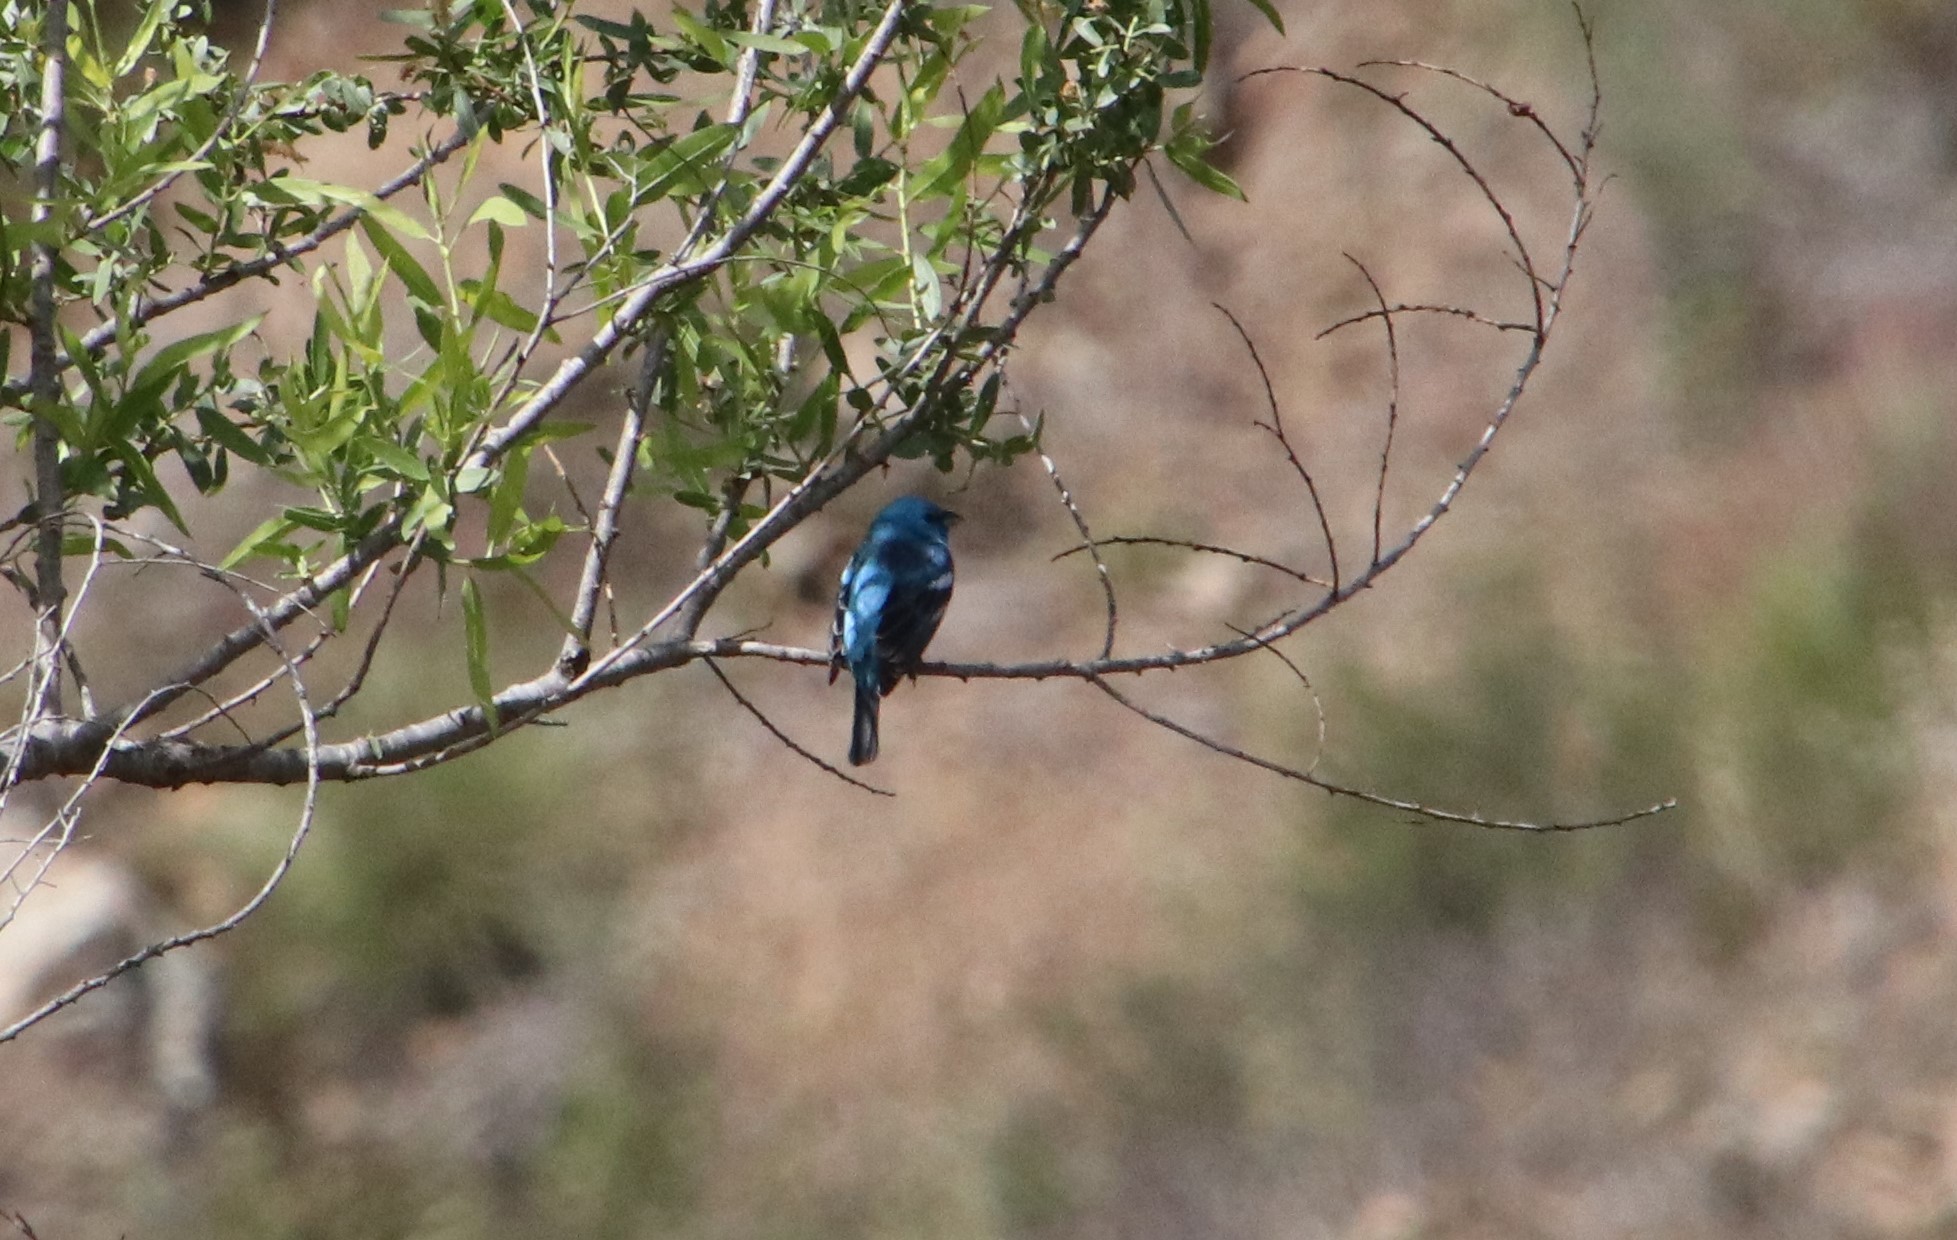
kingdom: Animalia
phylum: Chordata
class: Aves
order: Passeriformes
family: Cardinalidae
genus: Passerina
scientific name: Passerina amoena
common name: Lazuli bunting
